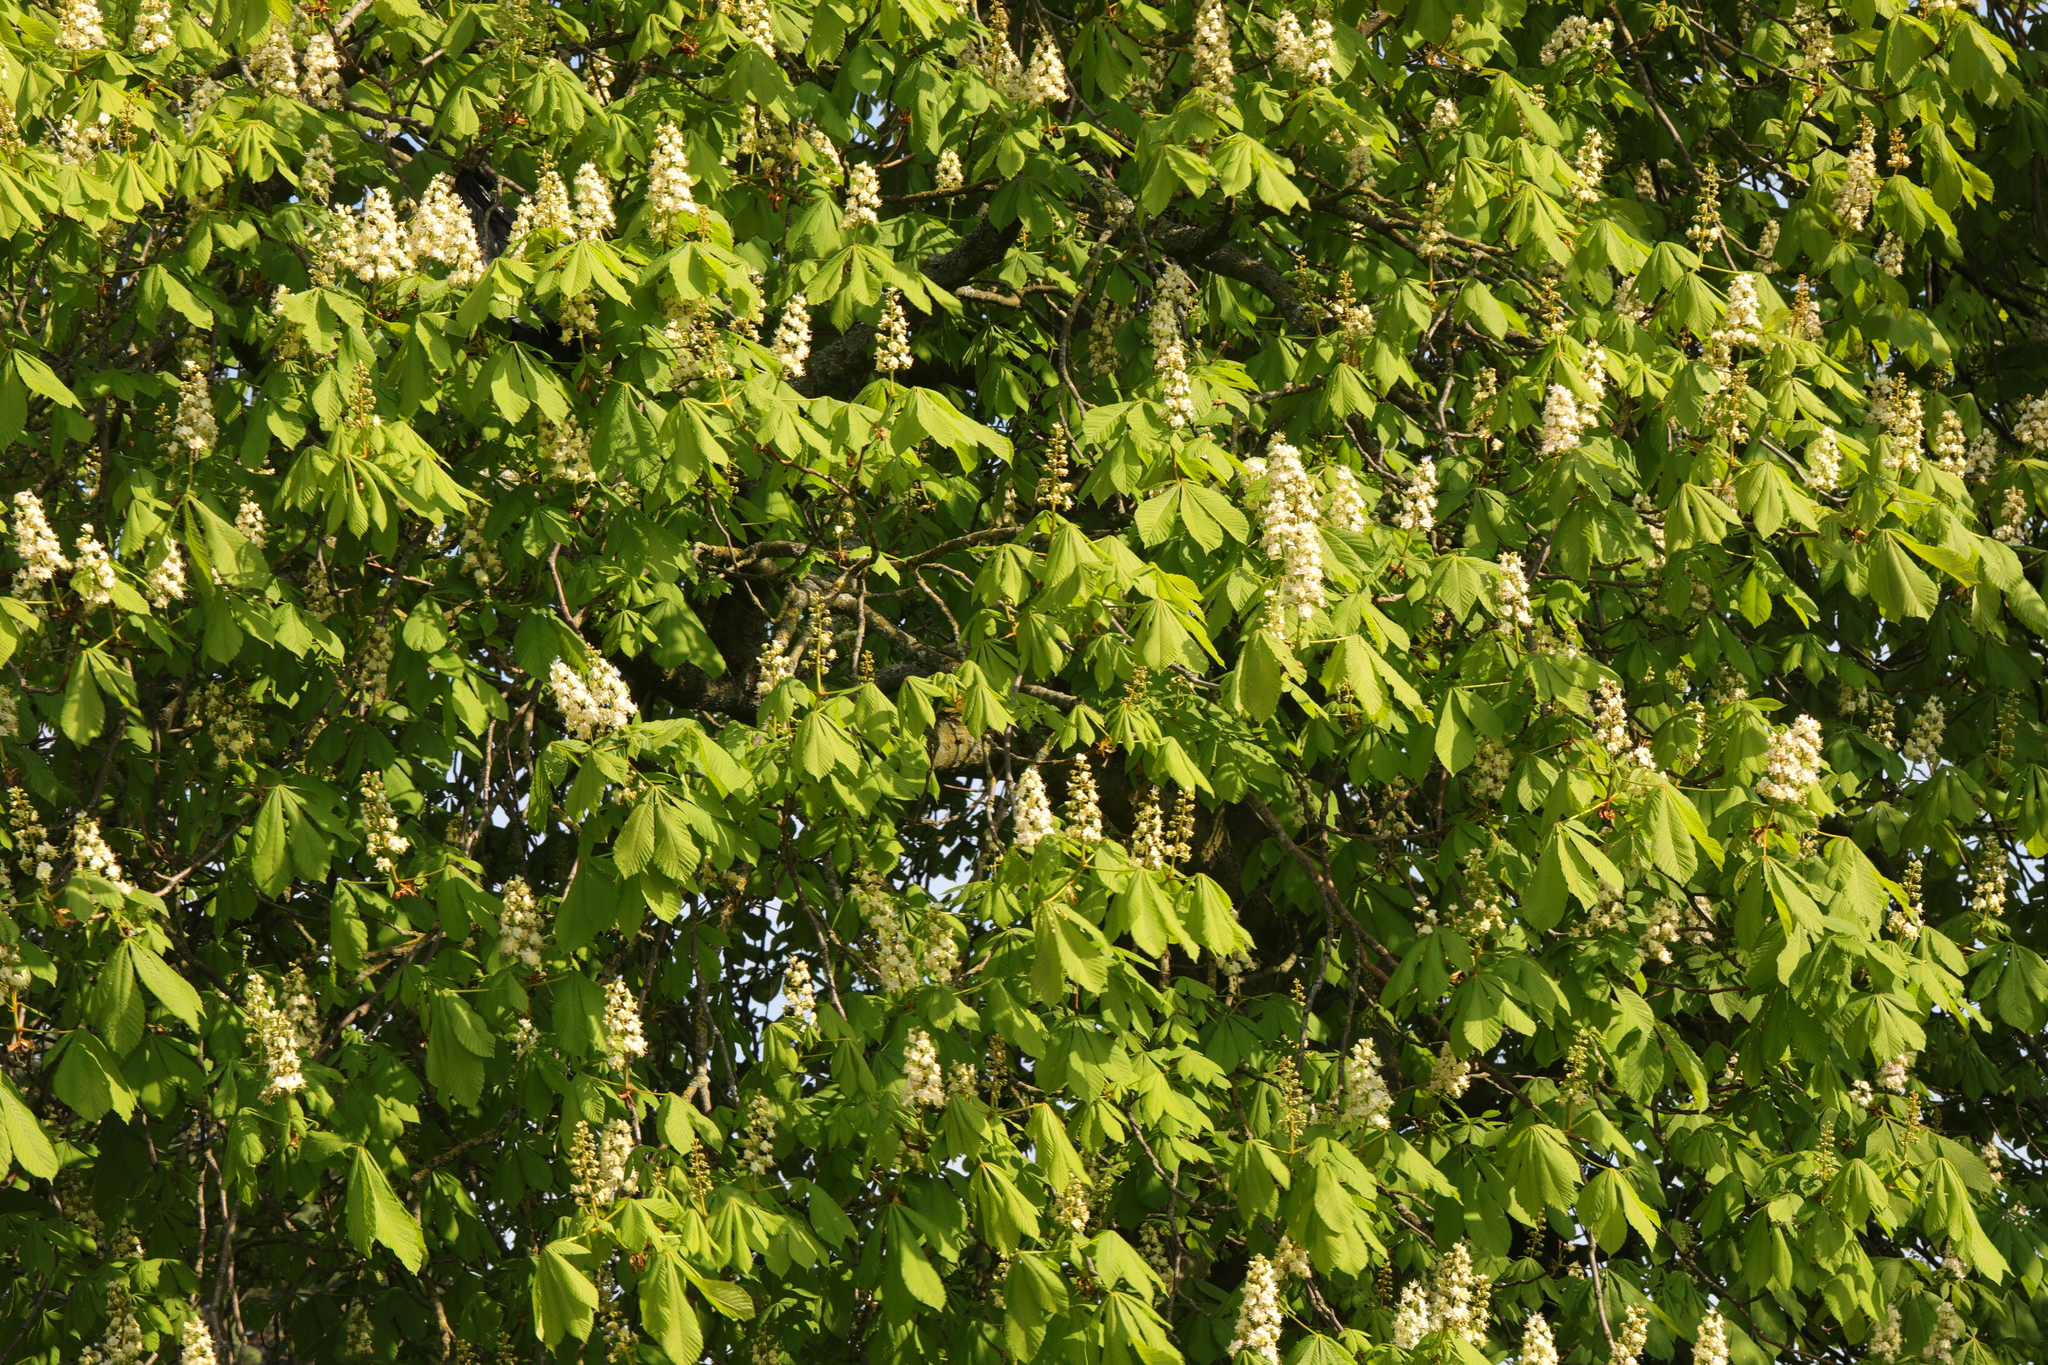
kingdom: Plantae
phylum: Tracheophyta
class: Magnoliopsida
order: Sapindales
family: Sapindaceae
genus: Aesculus
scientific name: Aesculus hippocastanum
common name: Horse-chestnut
